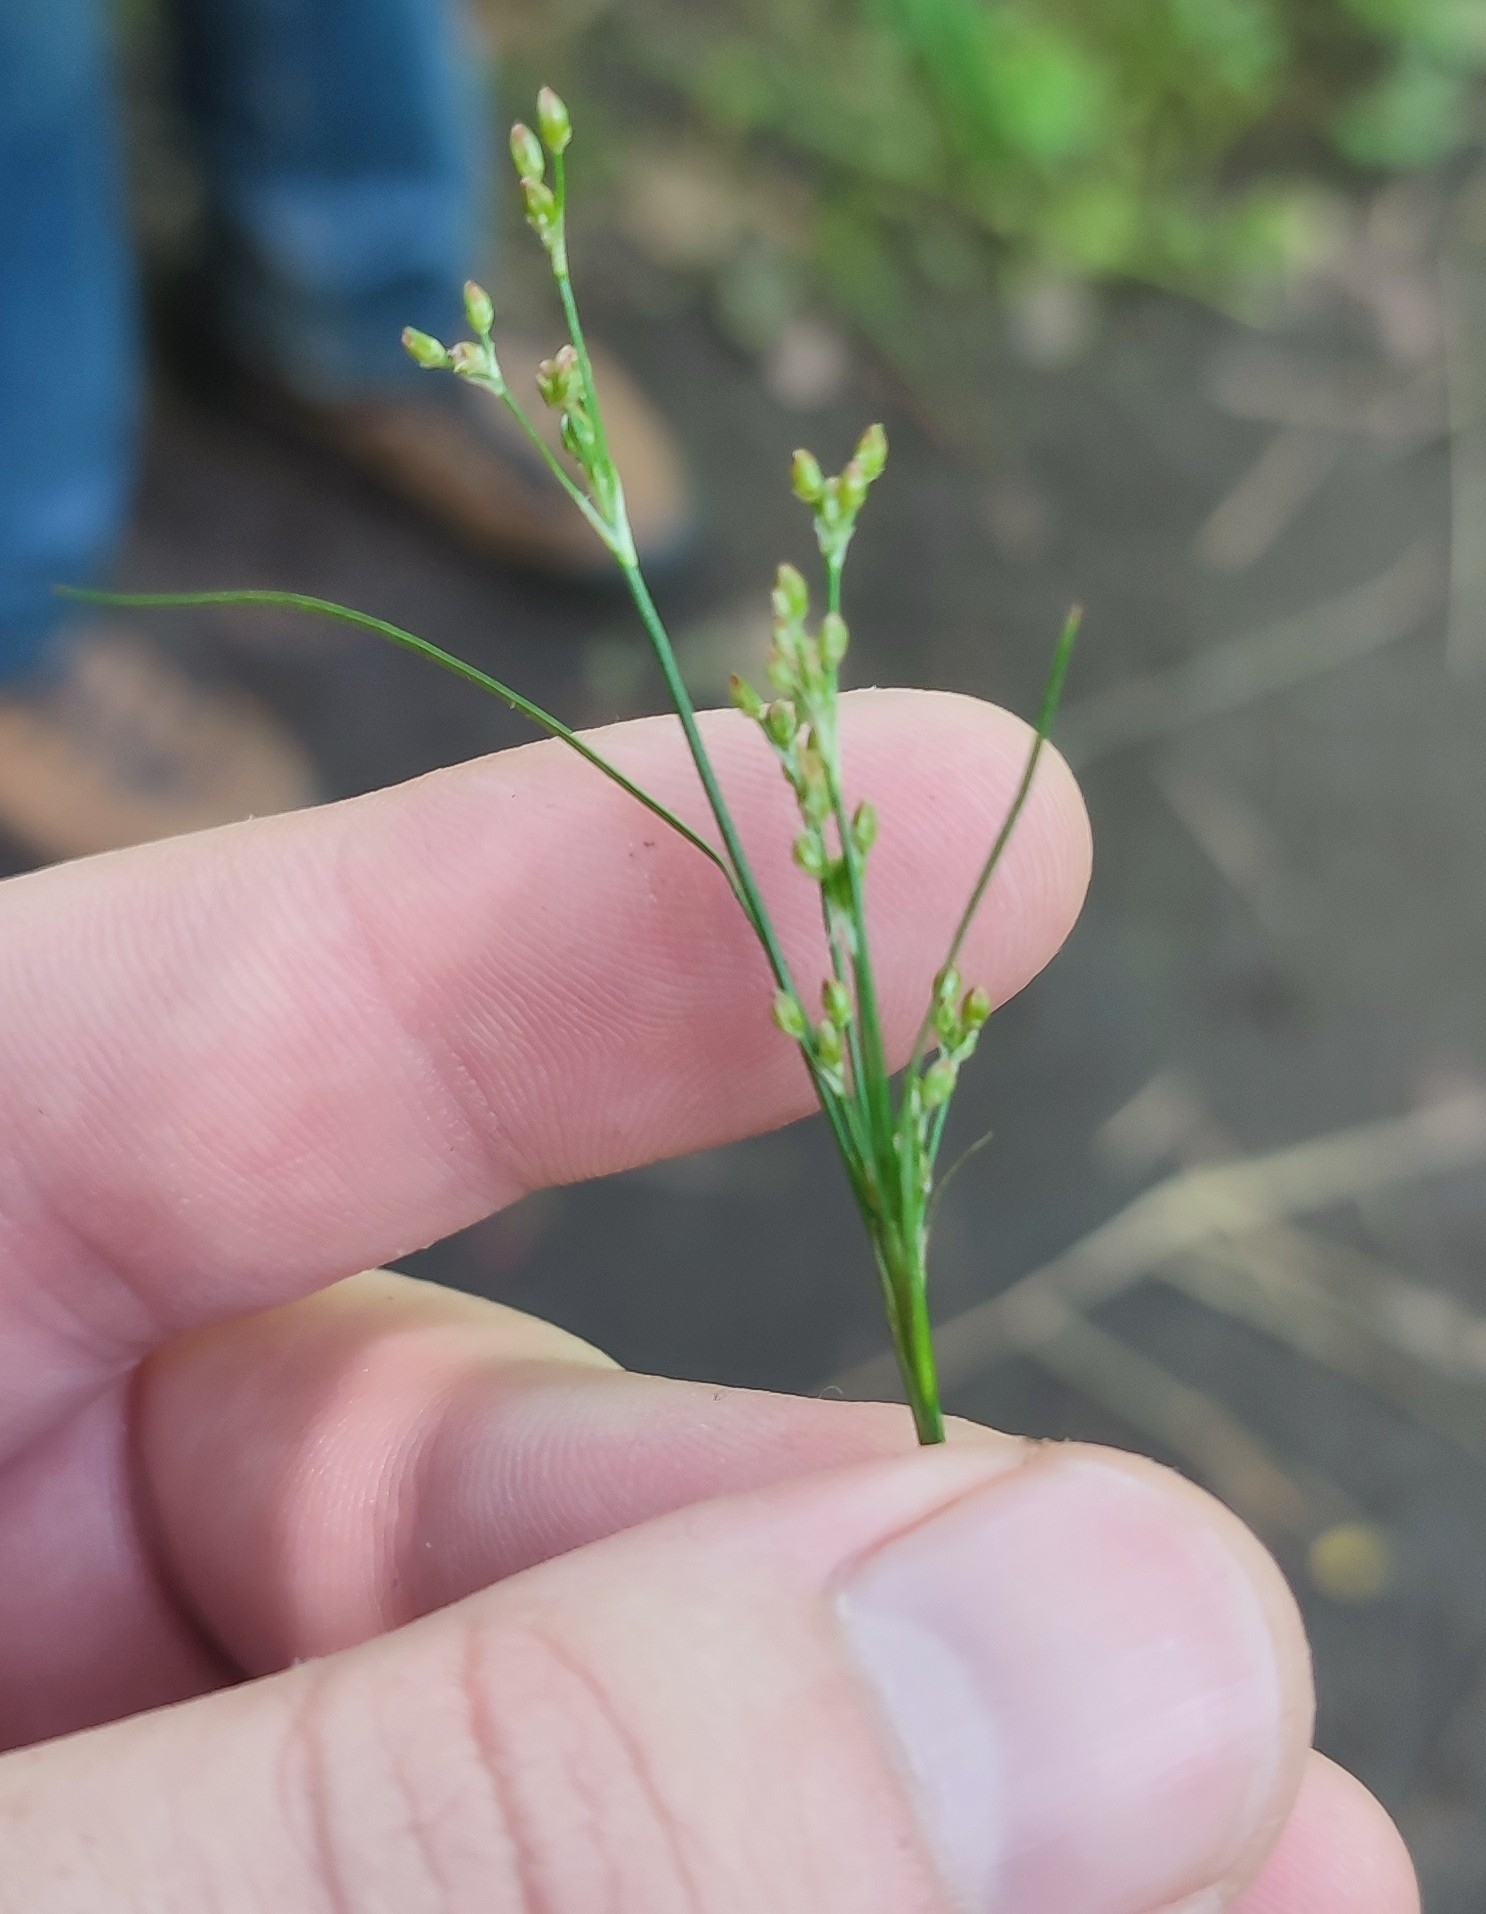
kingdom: Plantae
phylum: Tracheophyta
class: Liliopsida
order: Poales
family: Juncaceae
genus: Juncus
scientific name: Juncus compressus
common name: Round-fruited rush
